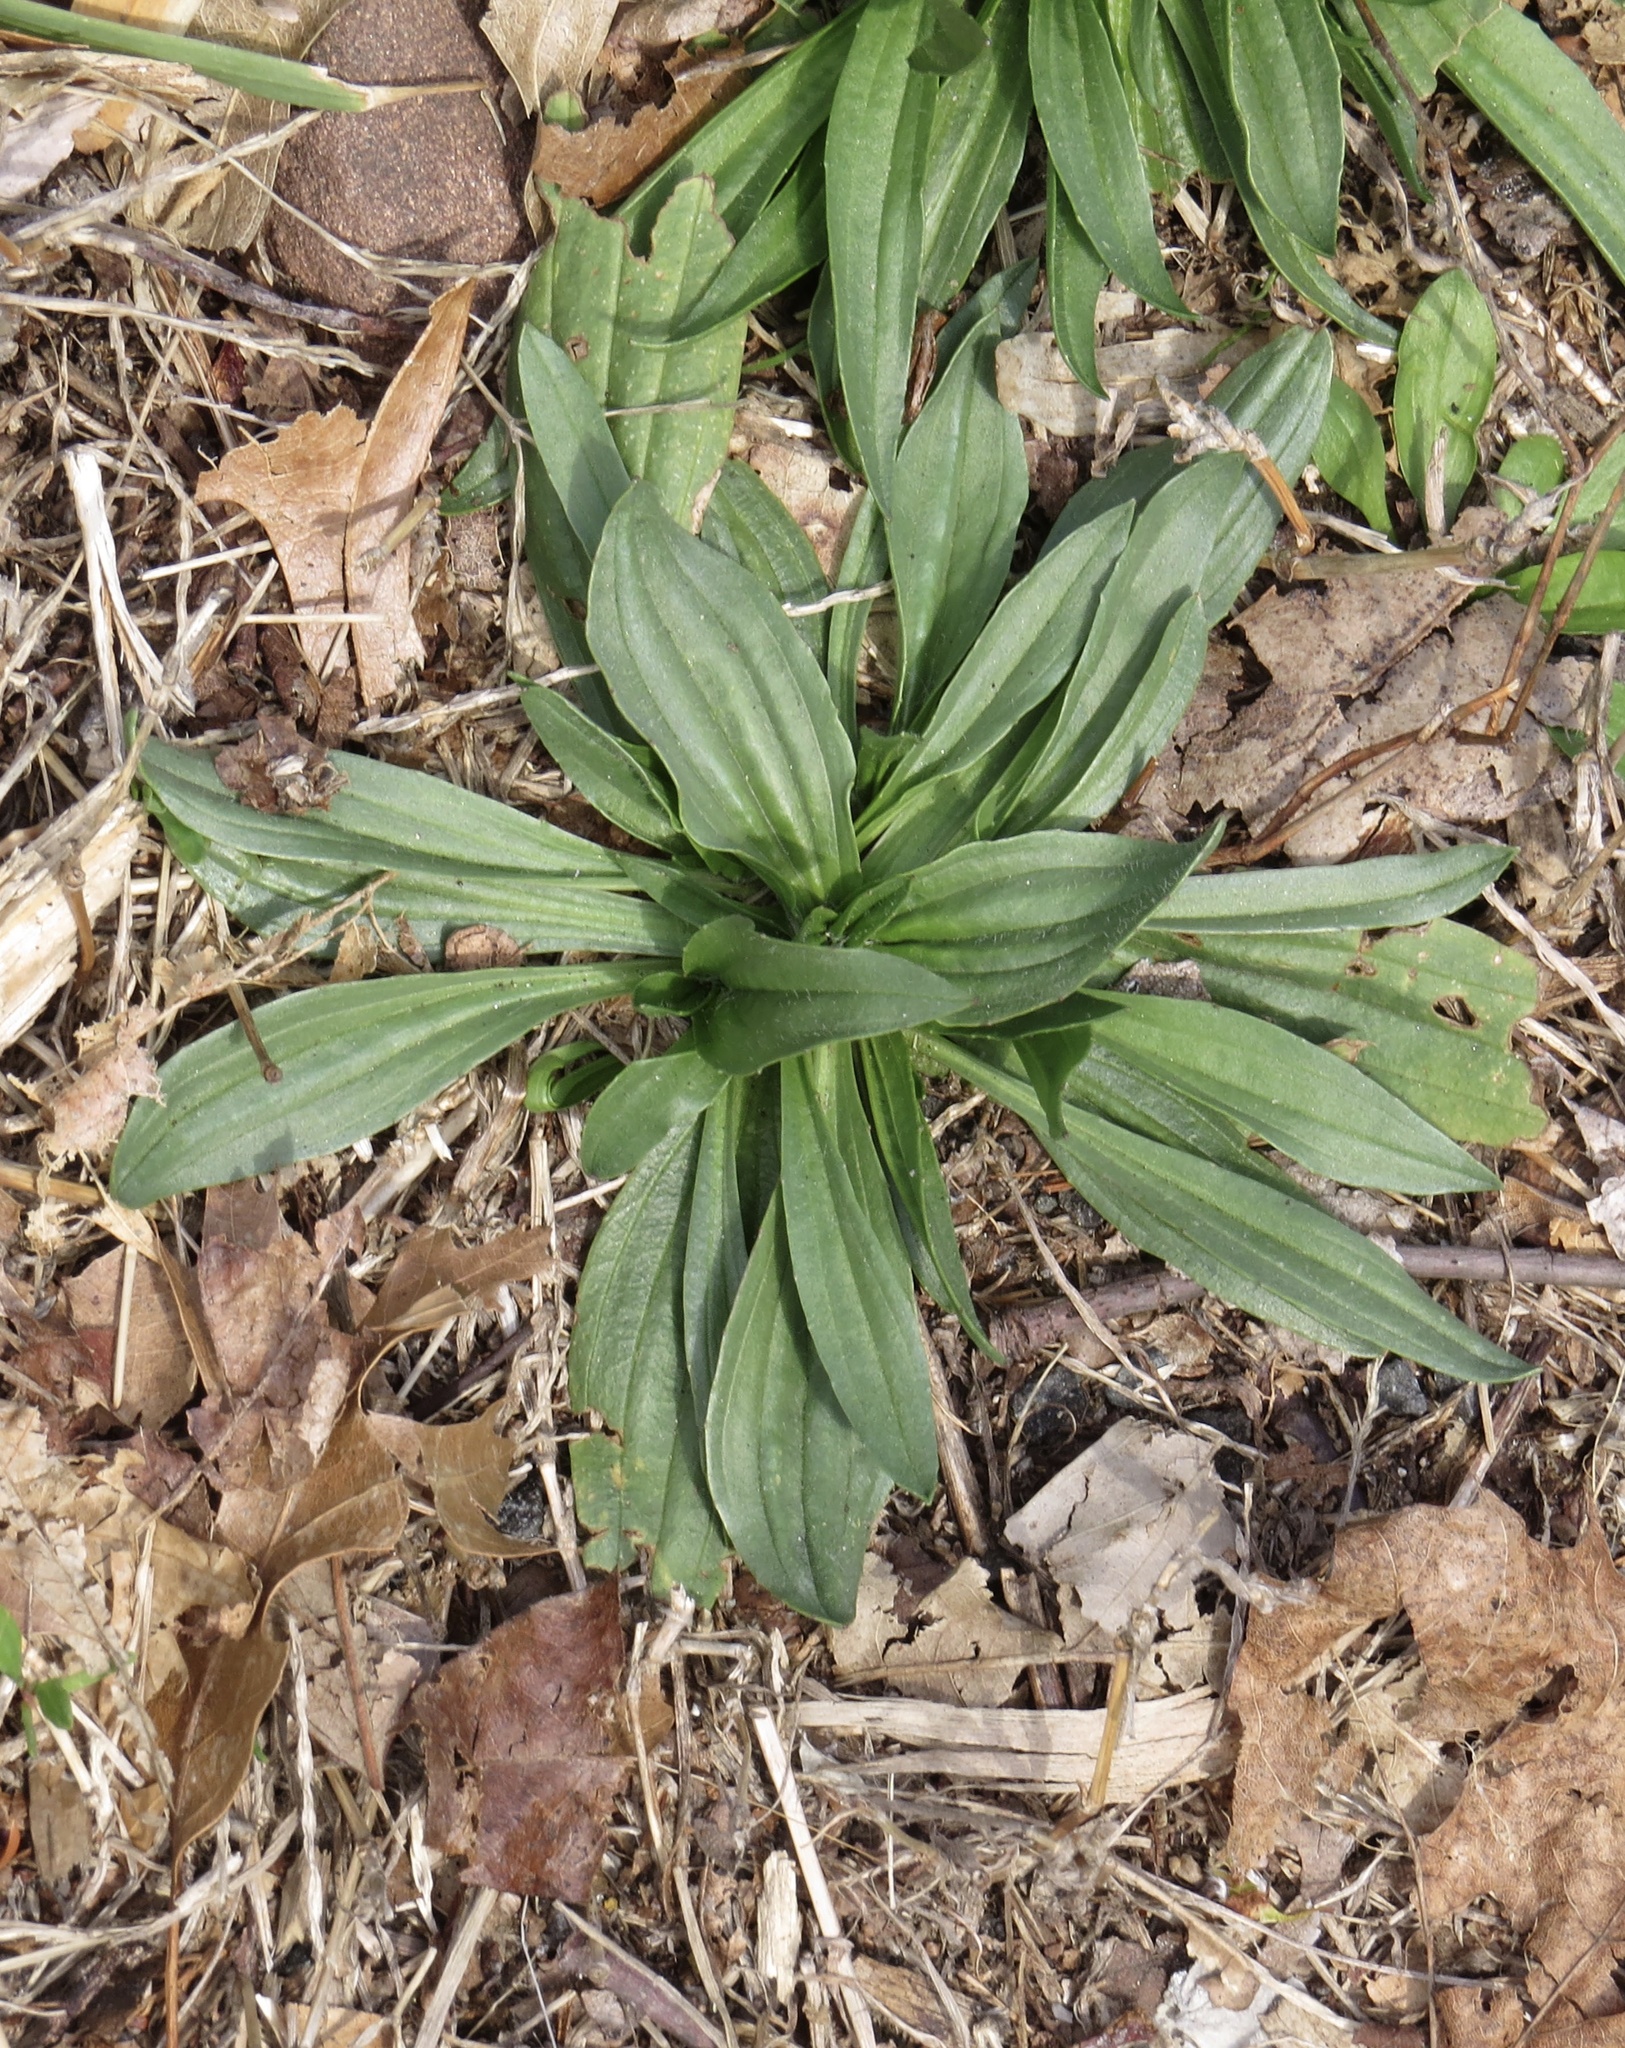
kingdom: Plantae
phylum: Tracheophyta
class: Magnoliopsida
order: Lamiales
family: Plantaginaceae
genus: Plantago
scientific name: Plantago lanceolata
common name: Ribwort plantain
